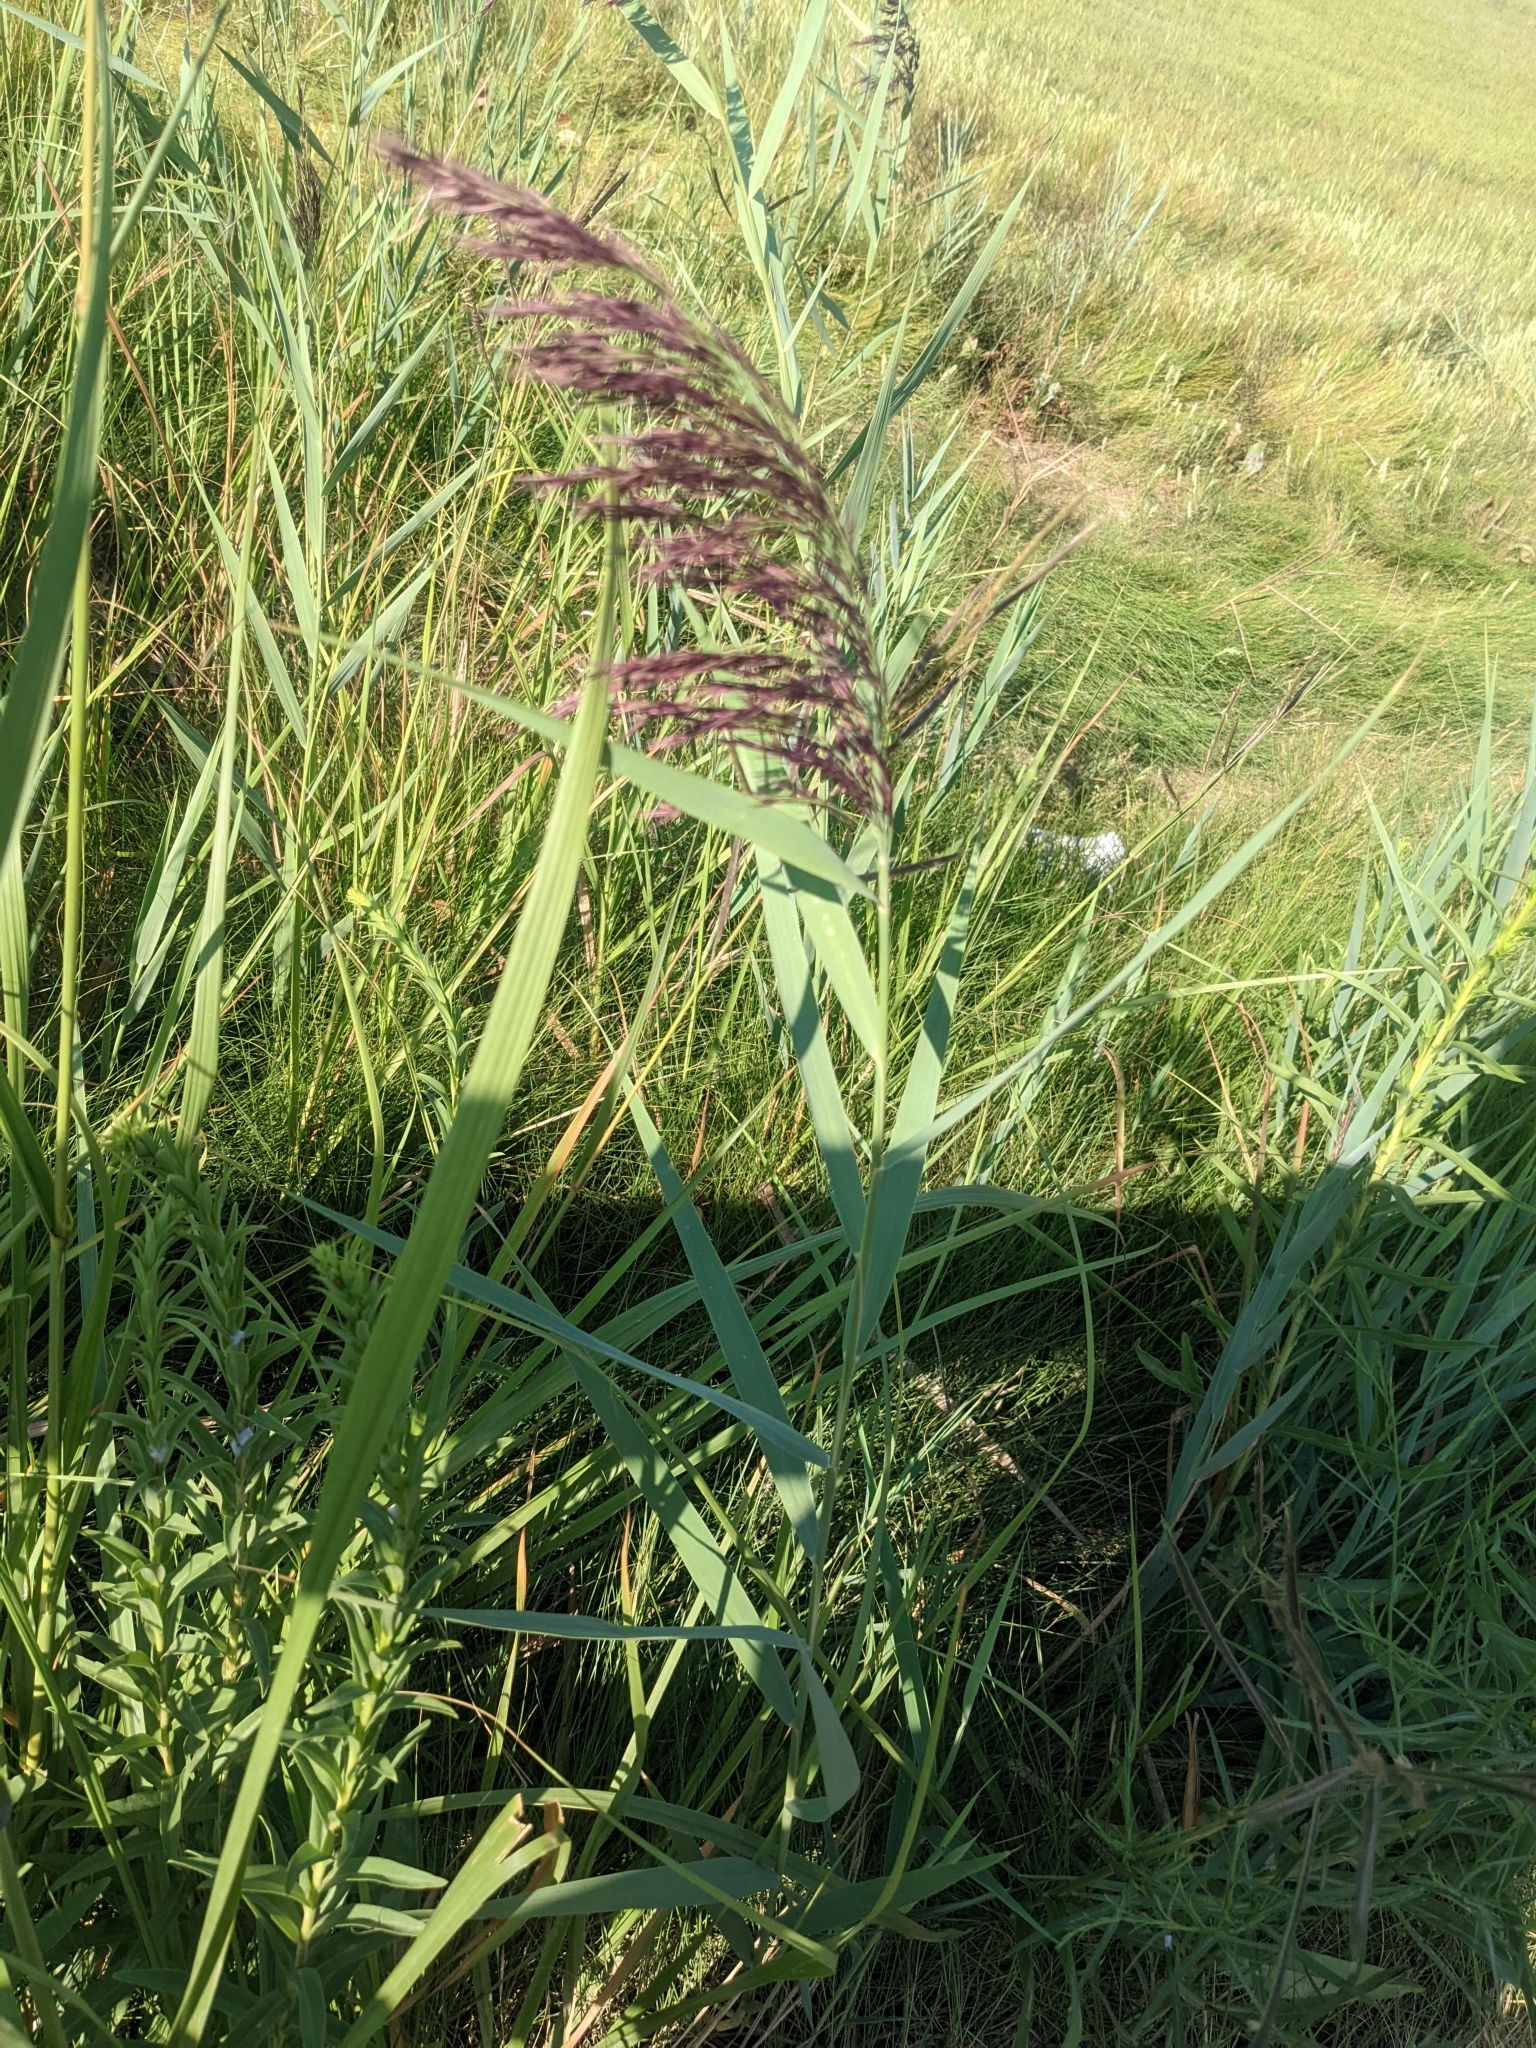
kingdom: Plantae
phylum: Tracheophyta
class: Liliopsida
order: Poales
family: Poaceae
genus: Phragmites
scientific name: Phragmites australis
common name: Common reed
